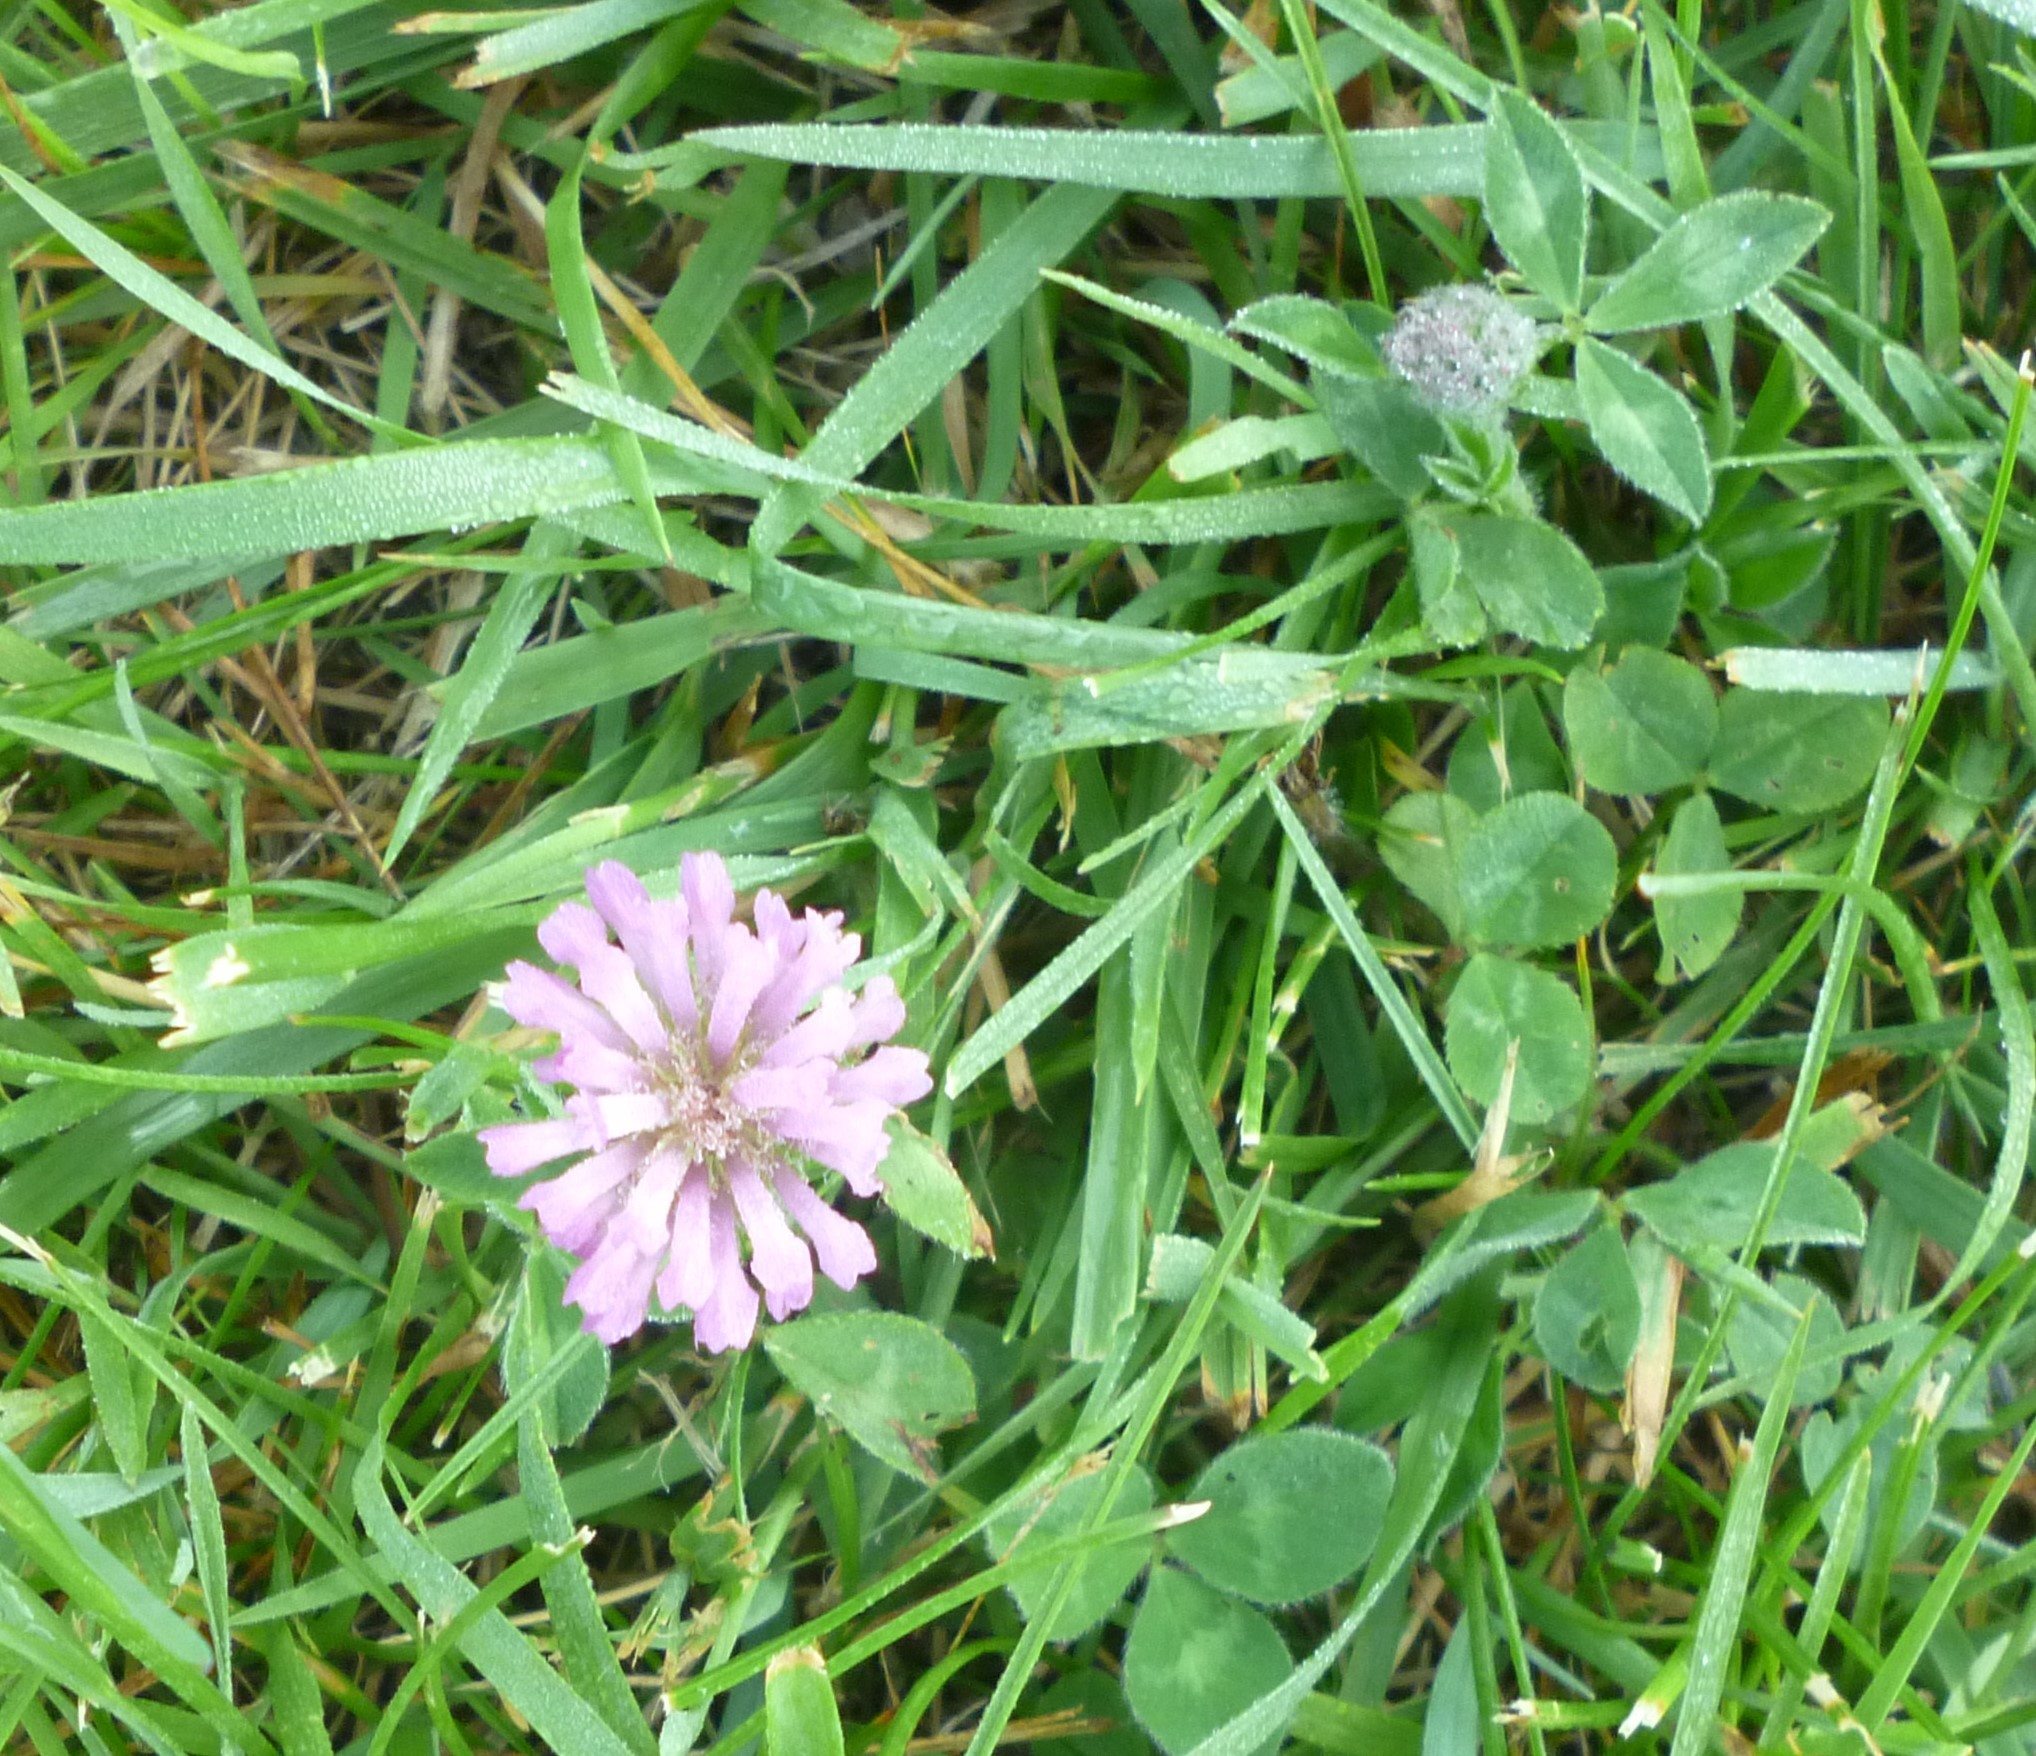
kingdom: Plantae
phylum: Tracheophyta
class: Magnoliopsida
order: Fabales
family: Fabaceae
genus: Trifolium
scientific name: Trifolium pratense
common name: Red clover
